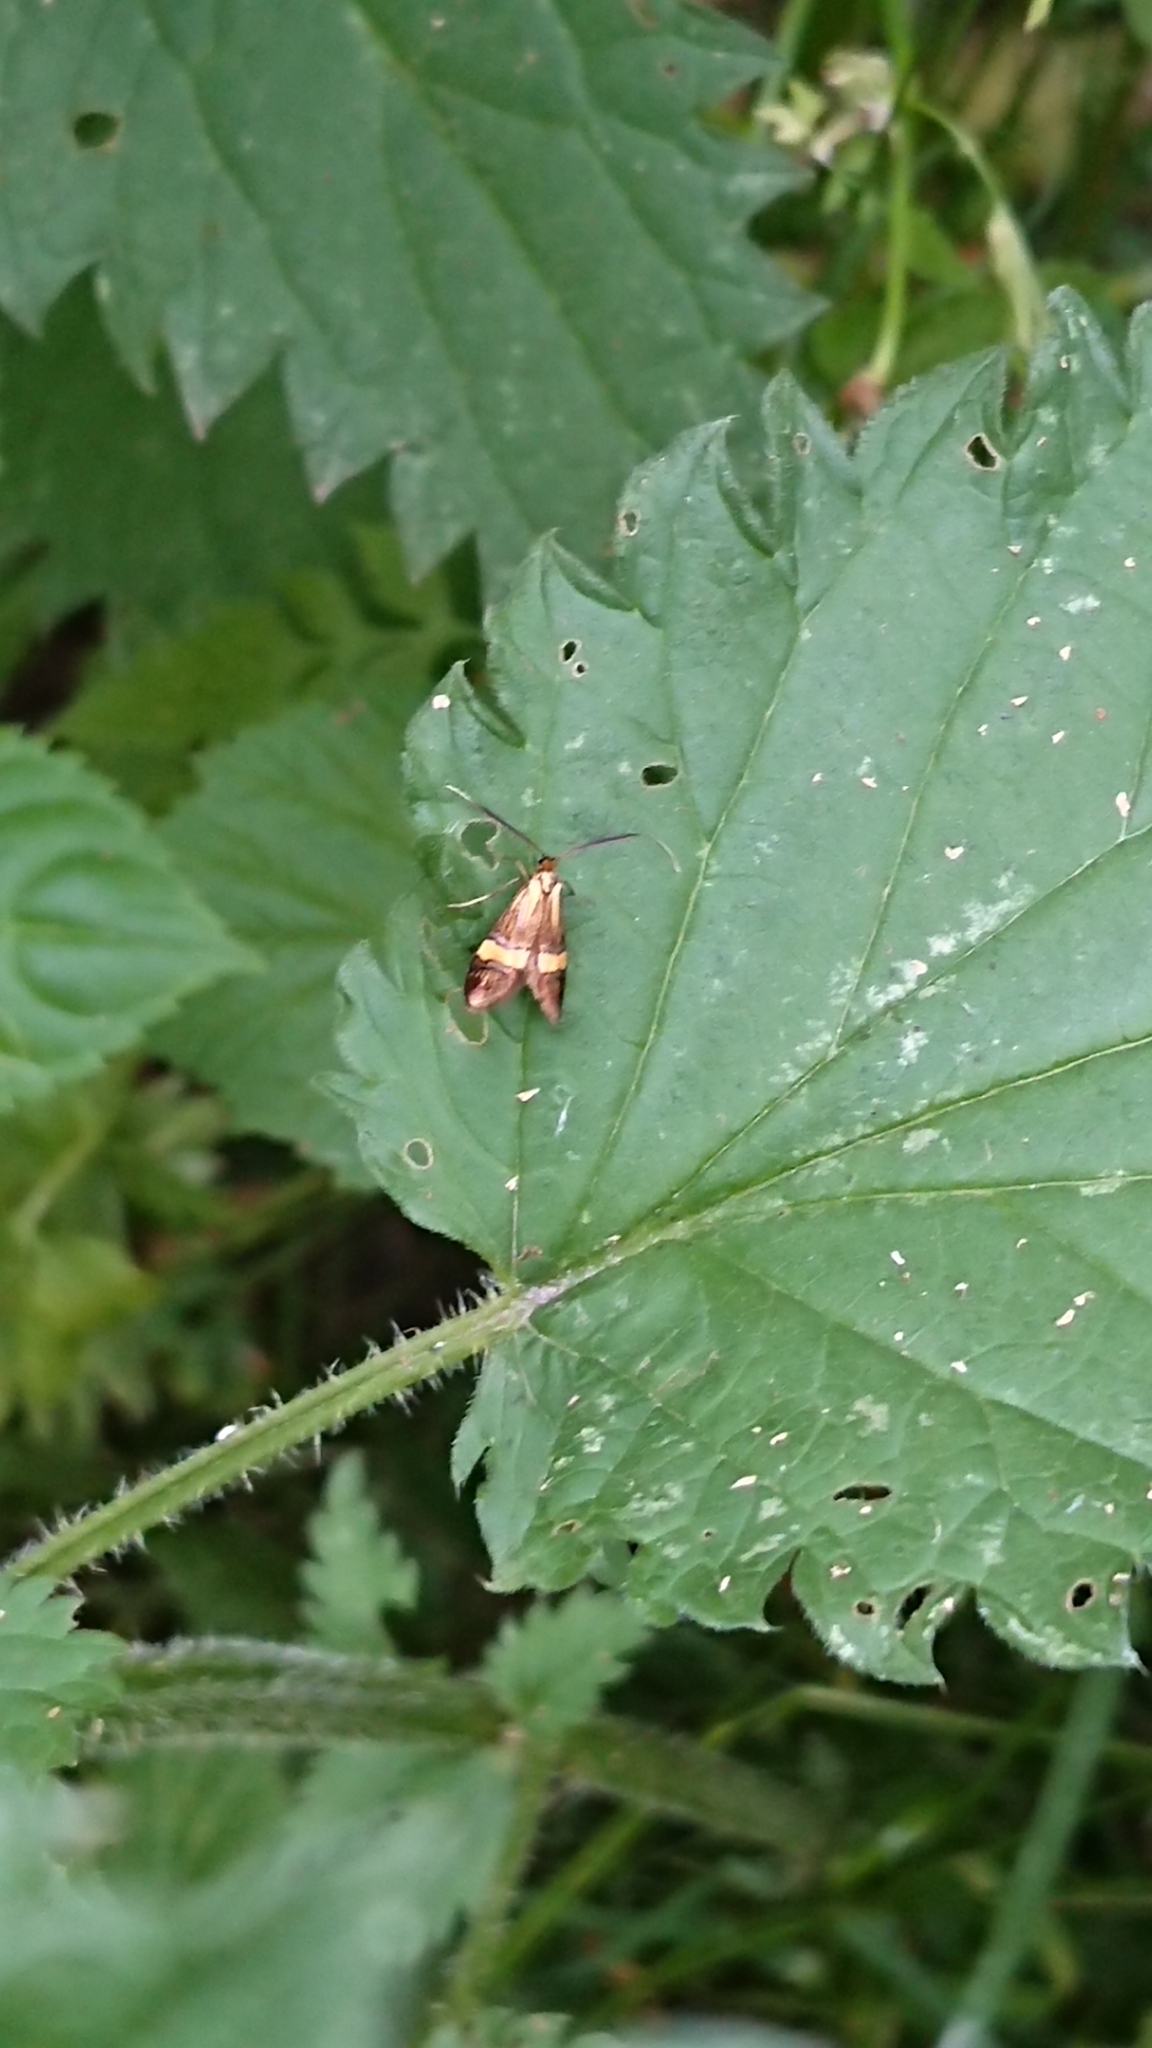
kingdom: Animalia
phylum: Arthropoda
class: Insecta
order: Lepidoptera
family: Adelidae
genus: Nemophora
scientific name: Nemophora degeerella
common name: Yellow-barred long-horn
